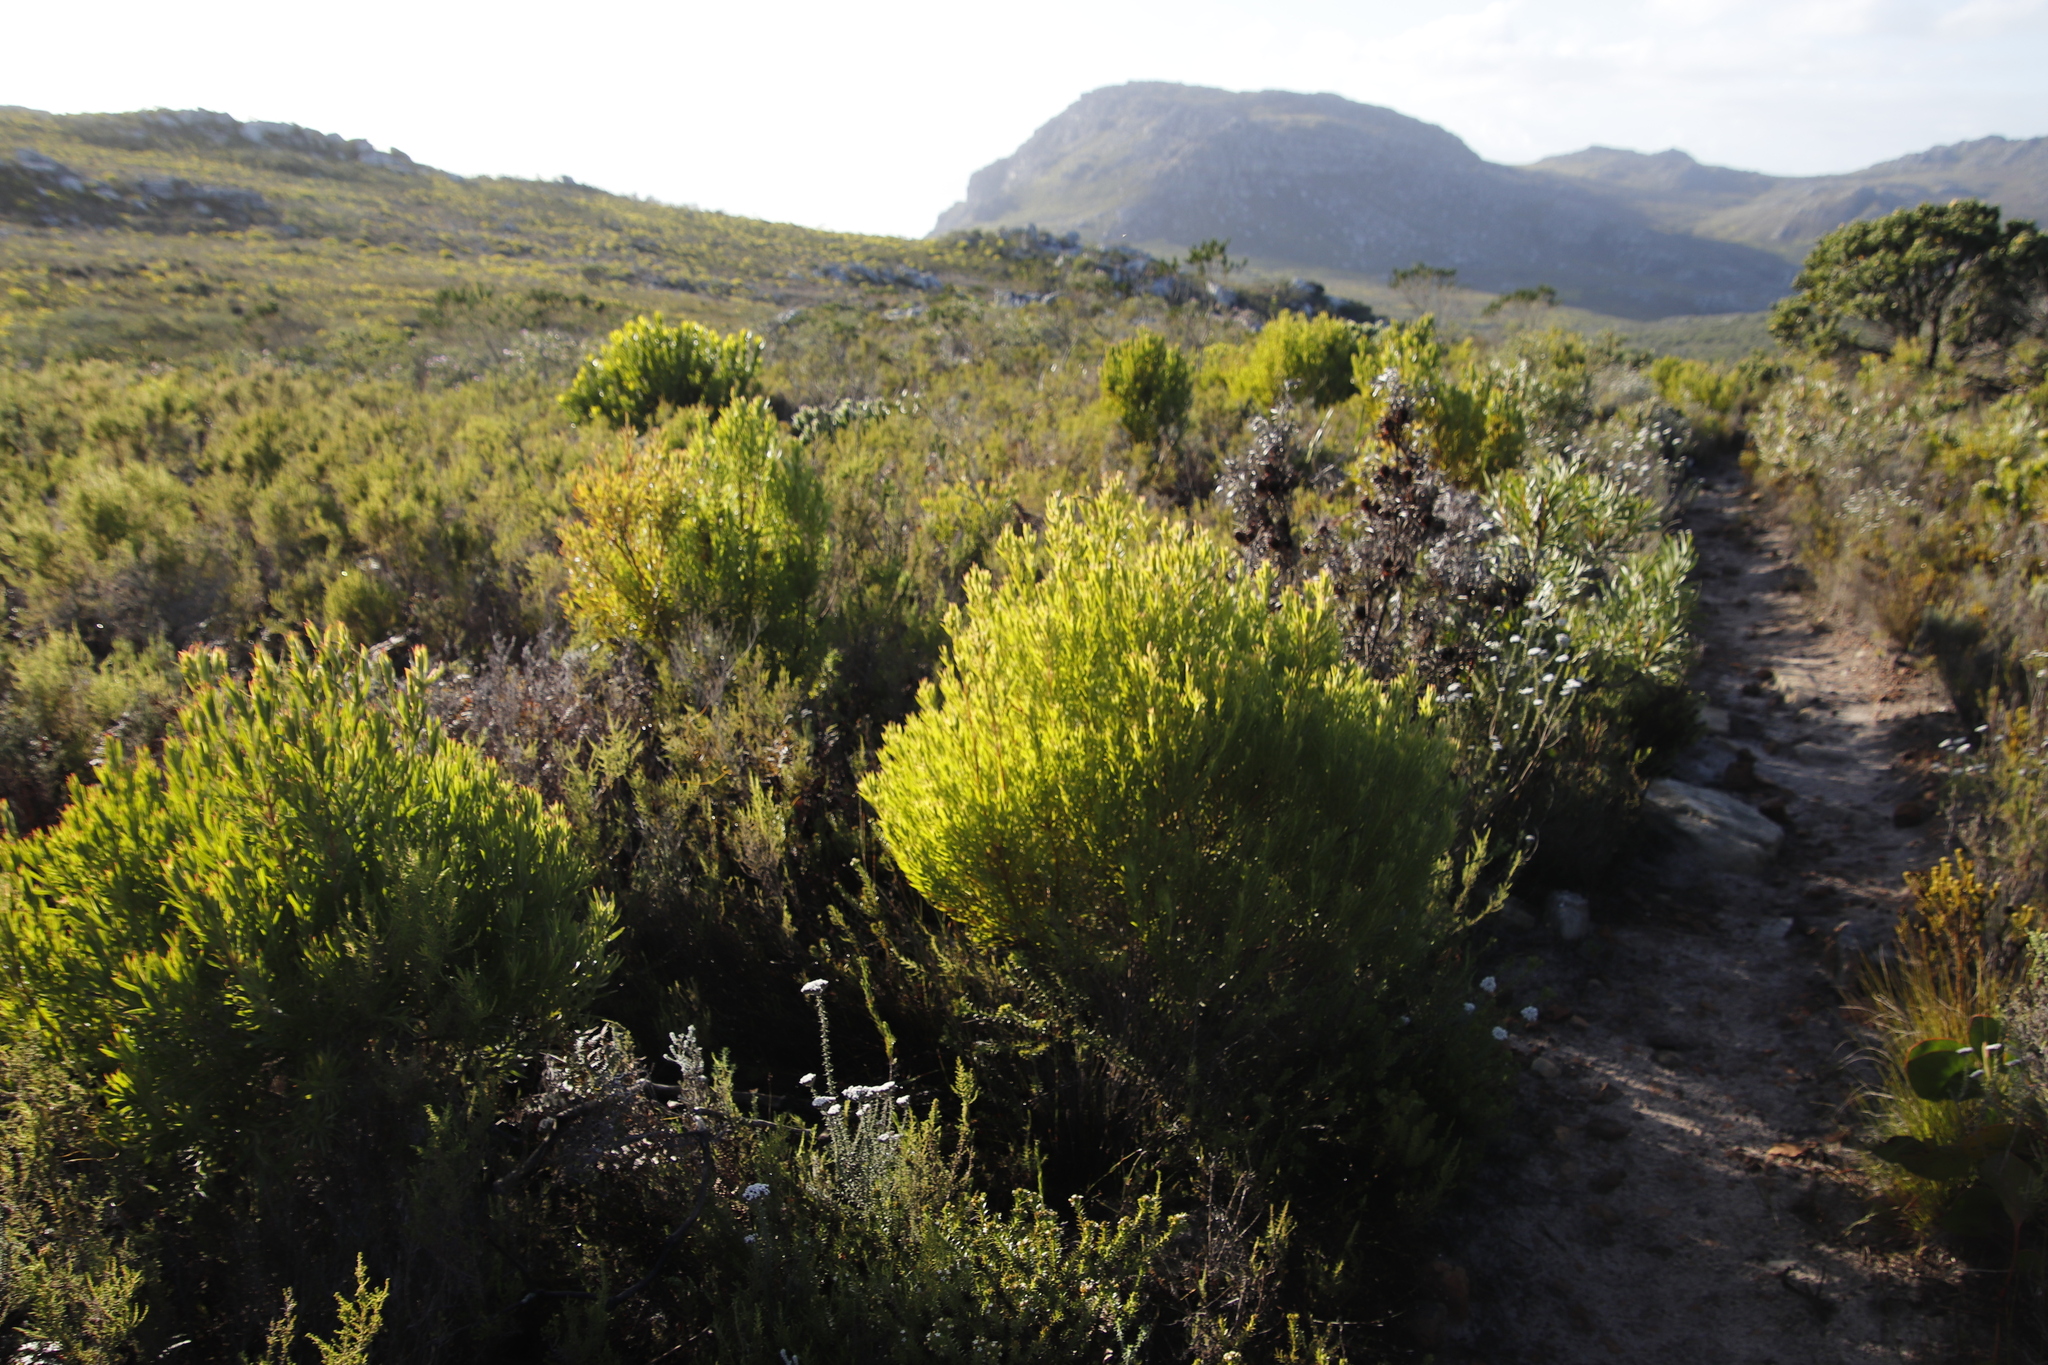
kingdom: Plantae
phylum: Tracheophyta
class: Magnoliopsida
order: Proteales
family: Proteaceae
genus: Leucadendron
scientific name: Leucadendron xanthoconus
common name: Sickle-leaf conebush
